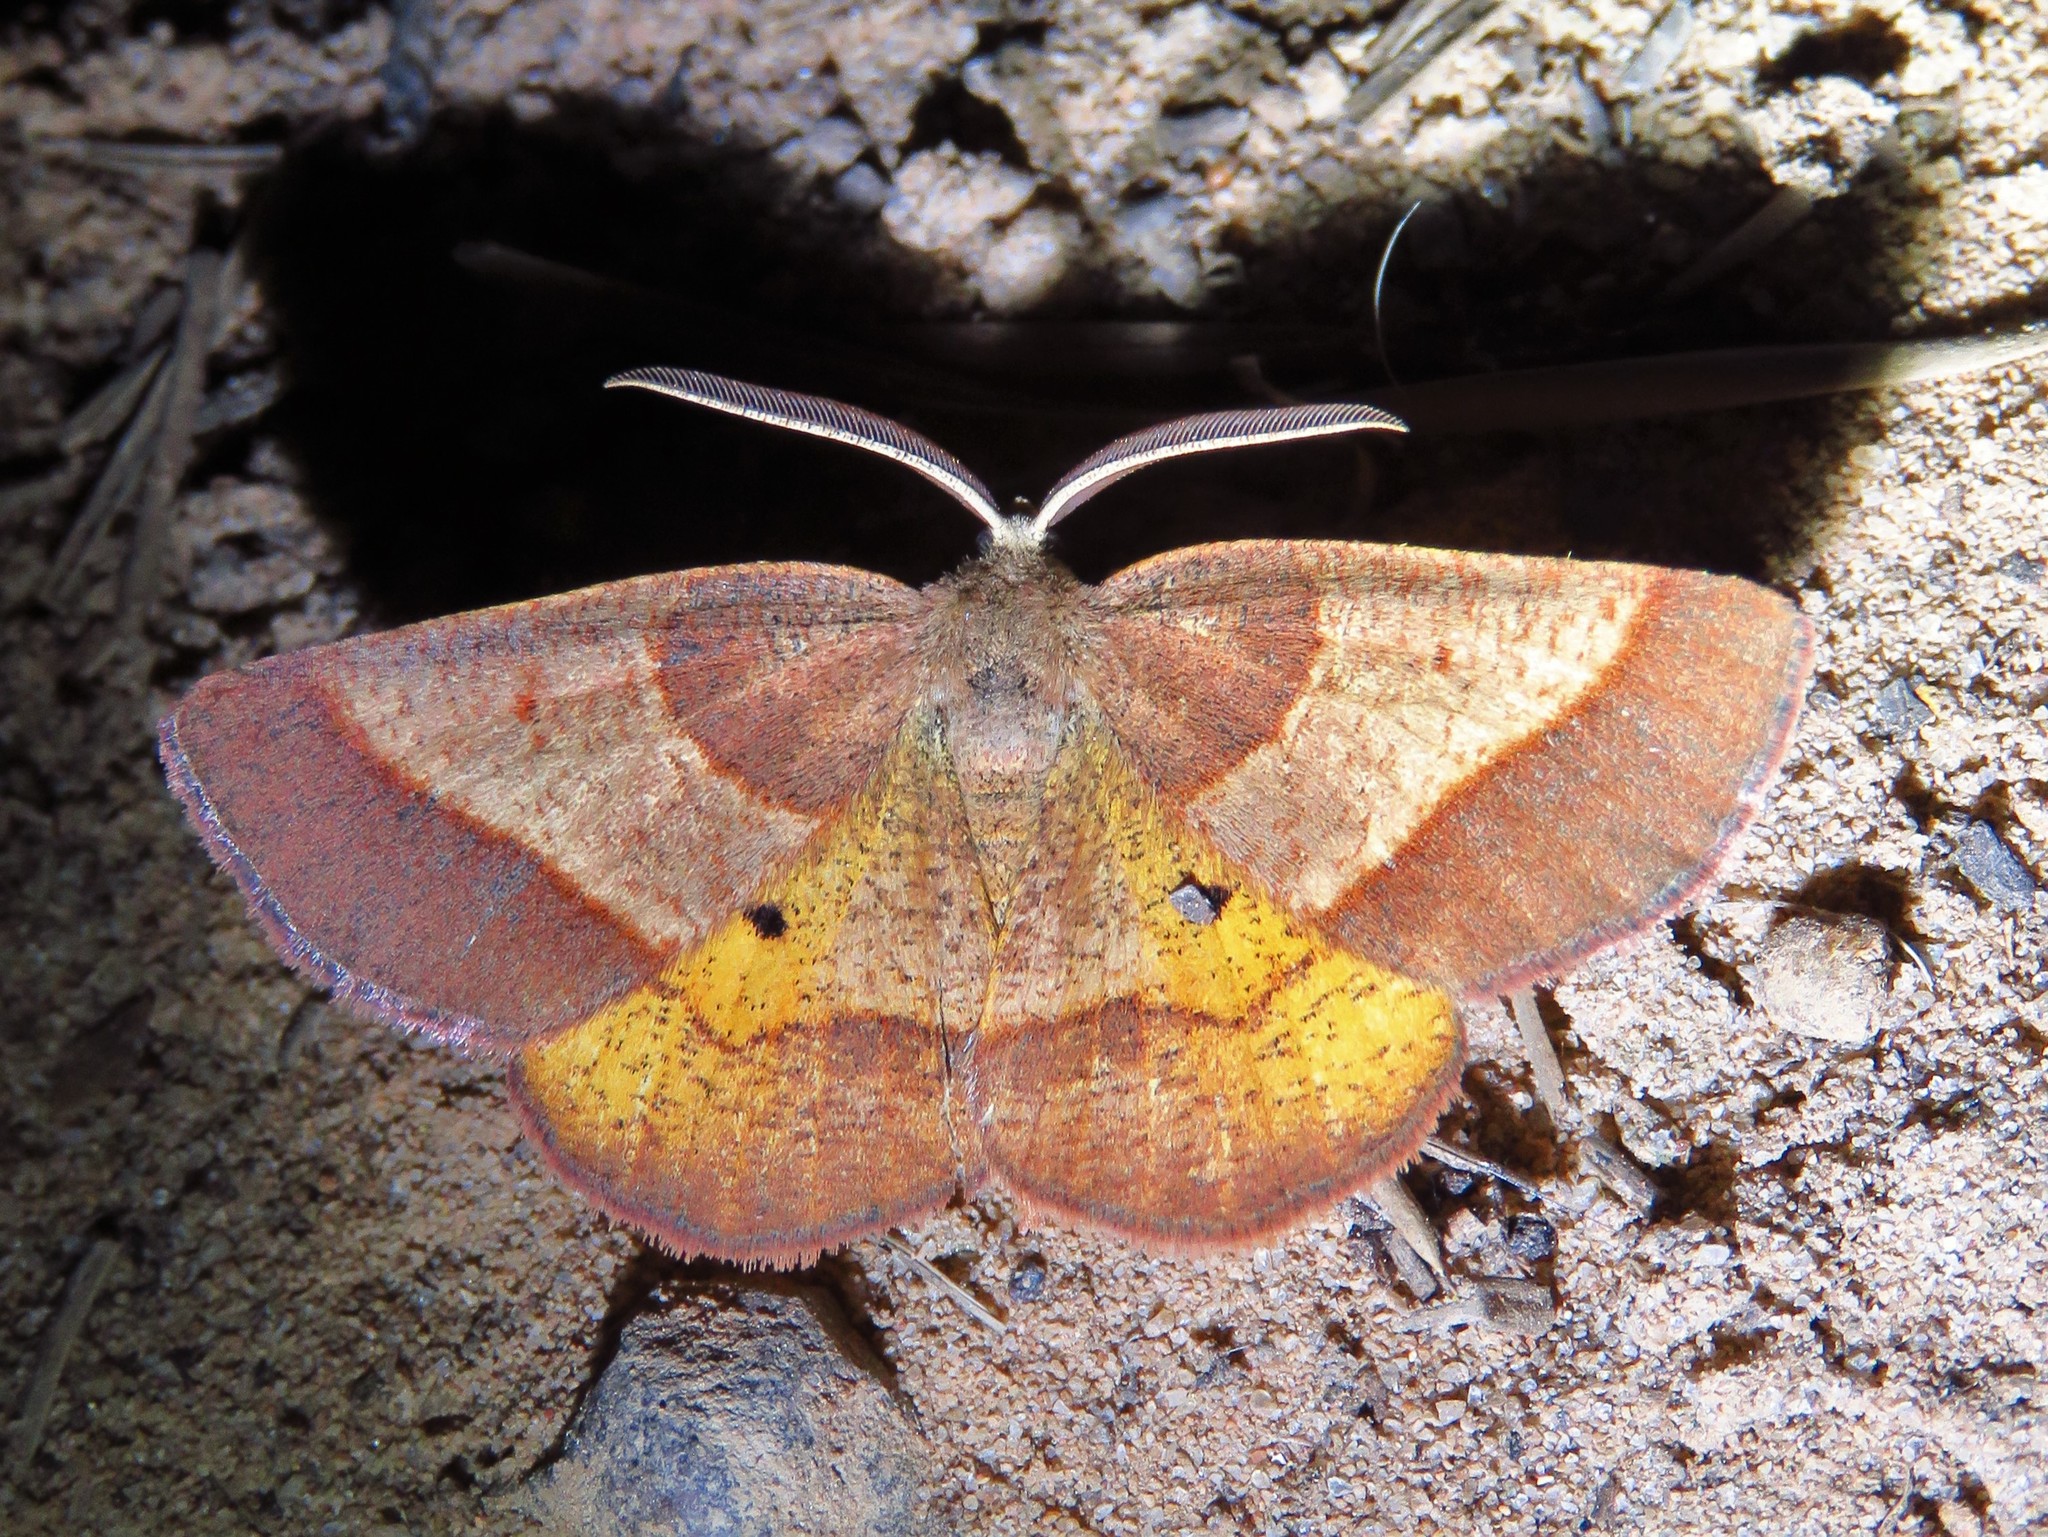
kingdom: Animalia
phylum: Arthropoda
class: Insecta
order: Lepidoptera
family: Geometridae
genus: Metarranthis
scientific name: Metarranthis obfirmaria
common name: Yellow-washed metarranthis
